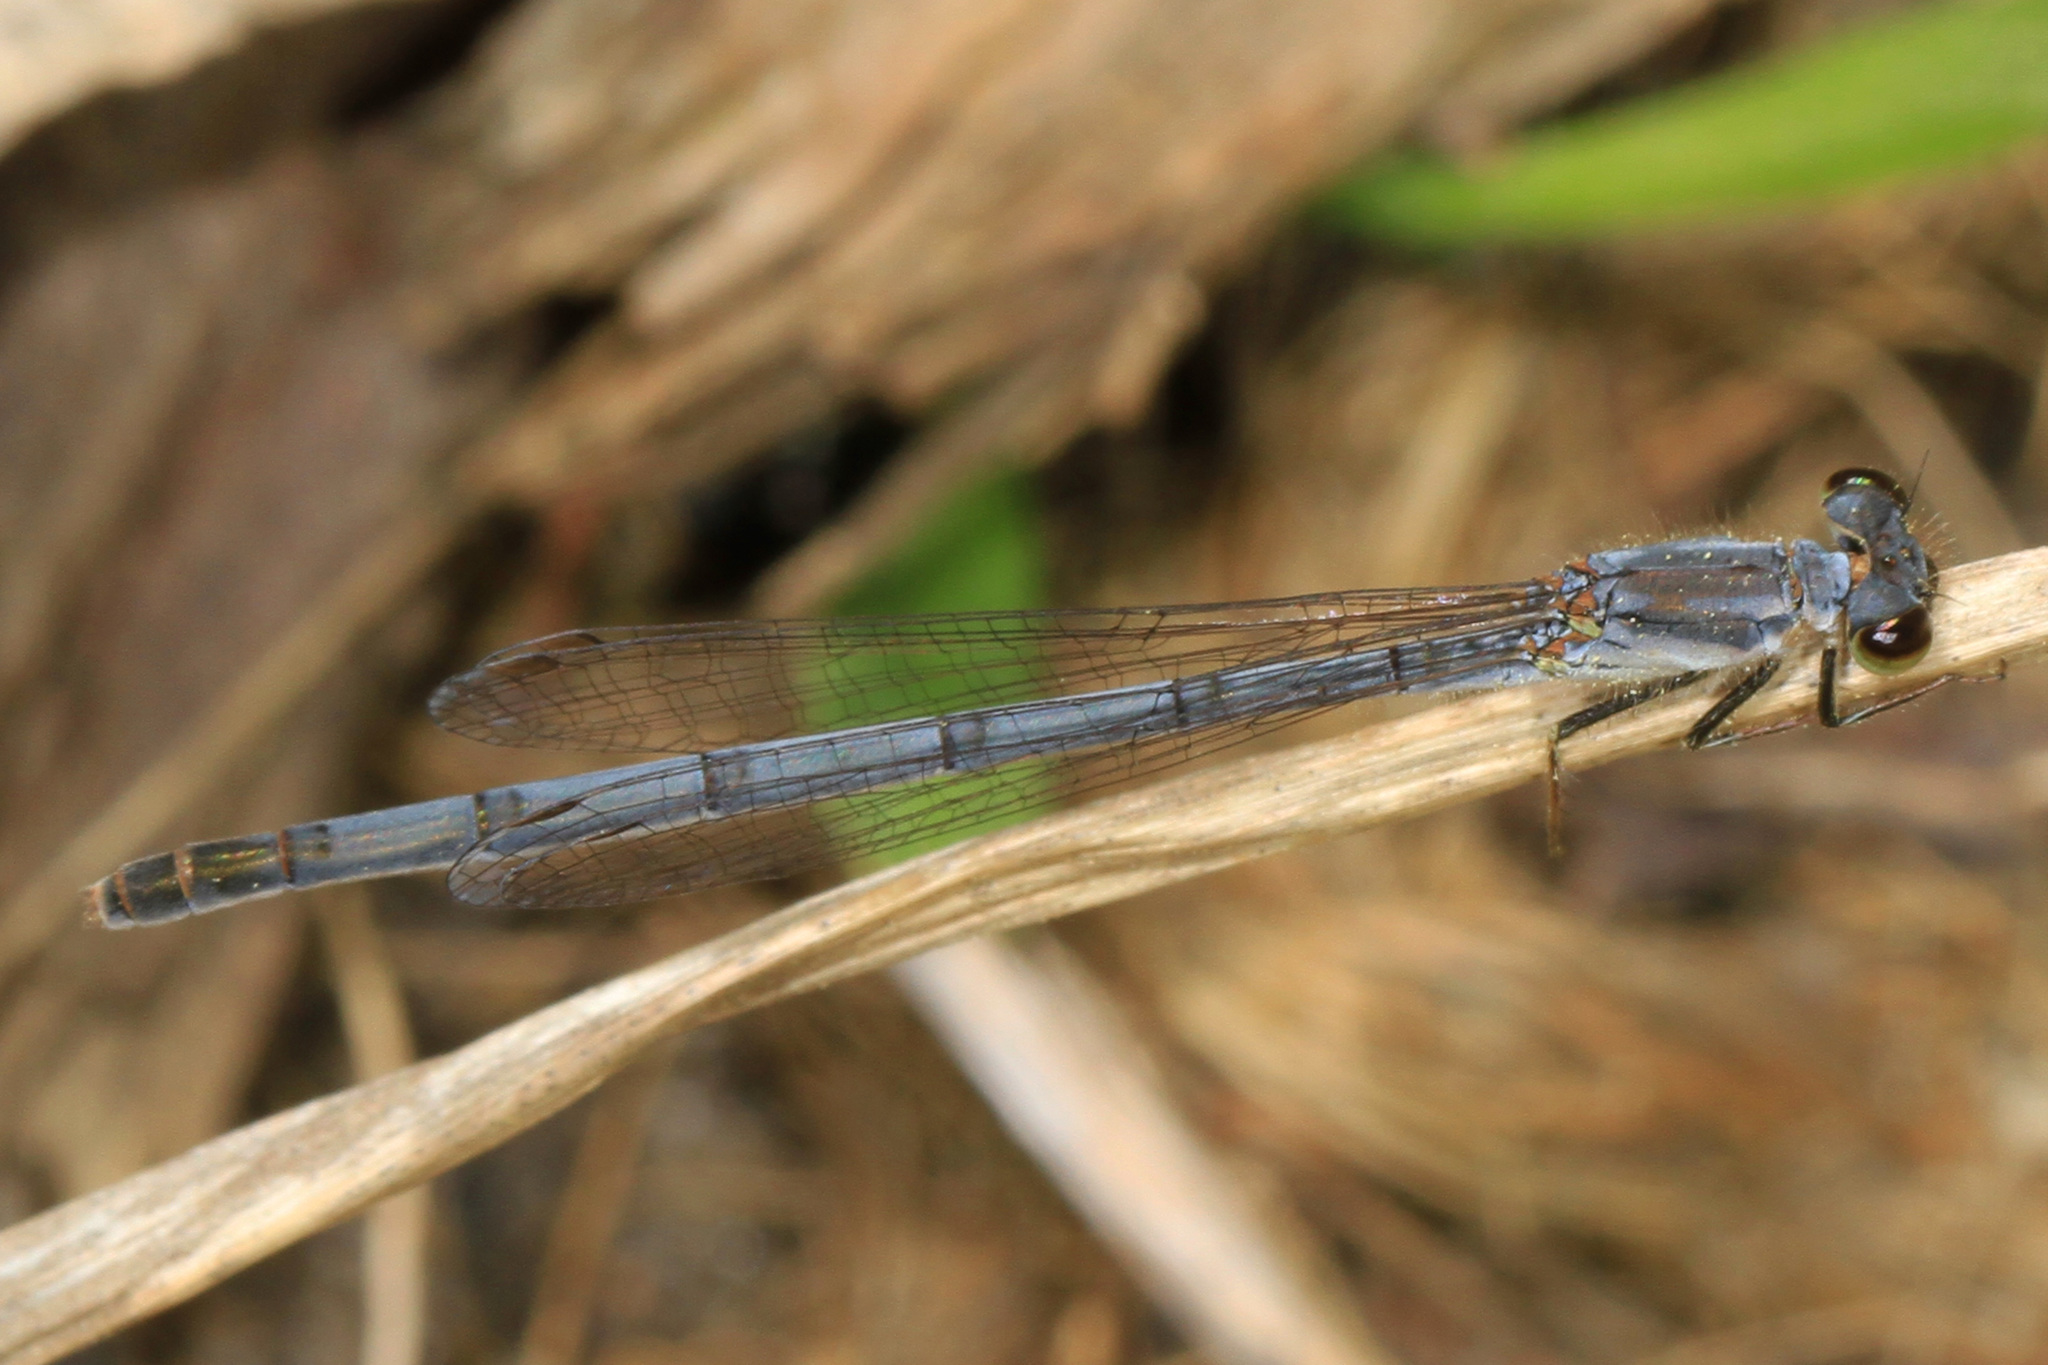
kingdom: Animalia
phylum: Arthropoda
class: Insecta
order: Odonata
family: Coenagrionidae
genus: Ischnura
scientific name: Ischnura posita
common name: Fragile forktail
